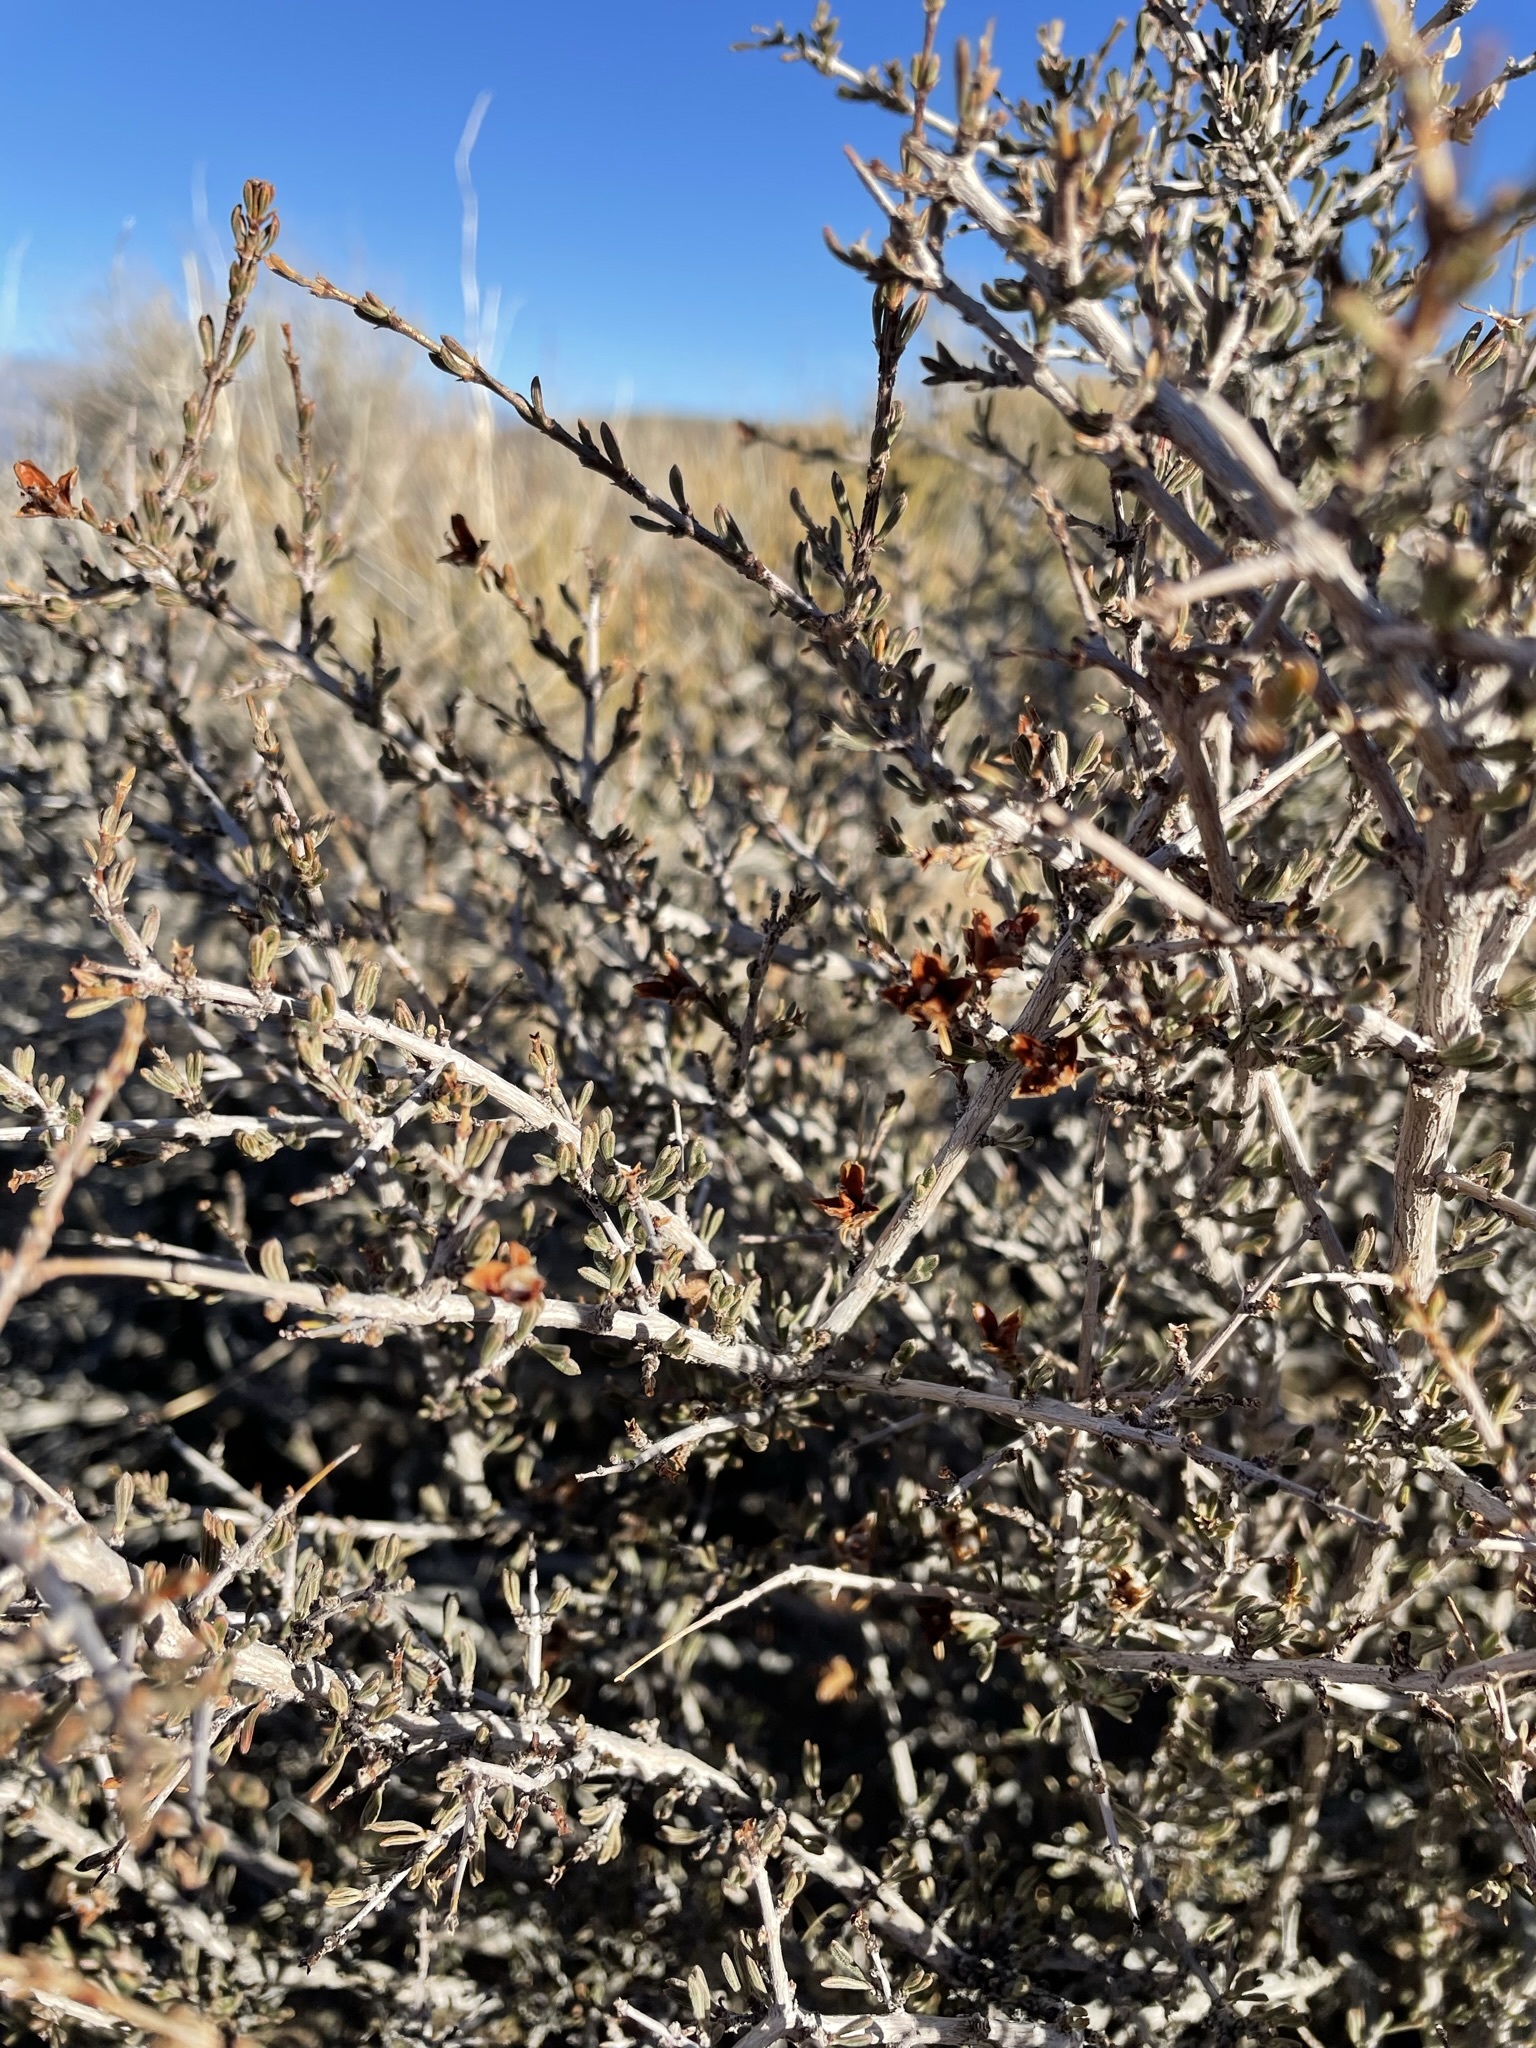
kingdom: Plantae
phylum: Tracheophyta
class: Magnoliopsida
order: Rosales
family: Rosaceae
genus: Coleogyne
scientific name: Coleogyne ramosissima
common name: Blackbrush
